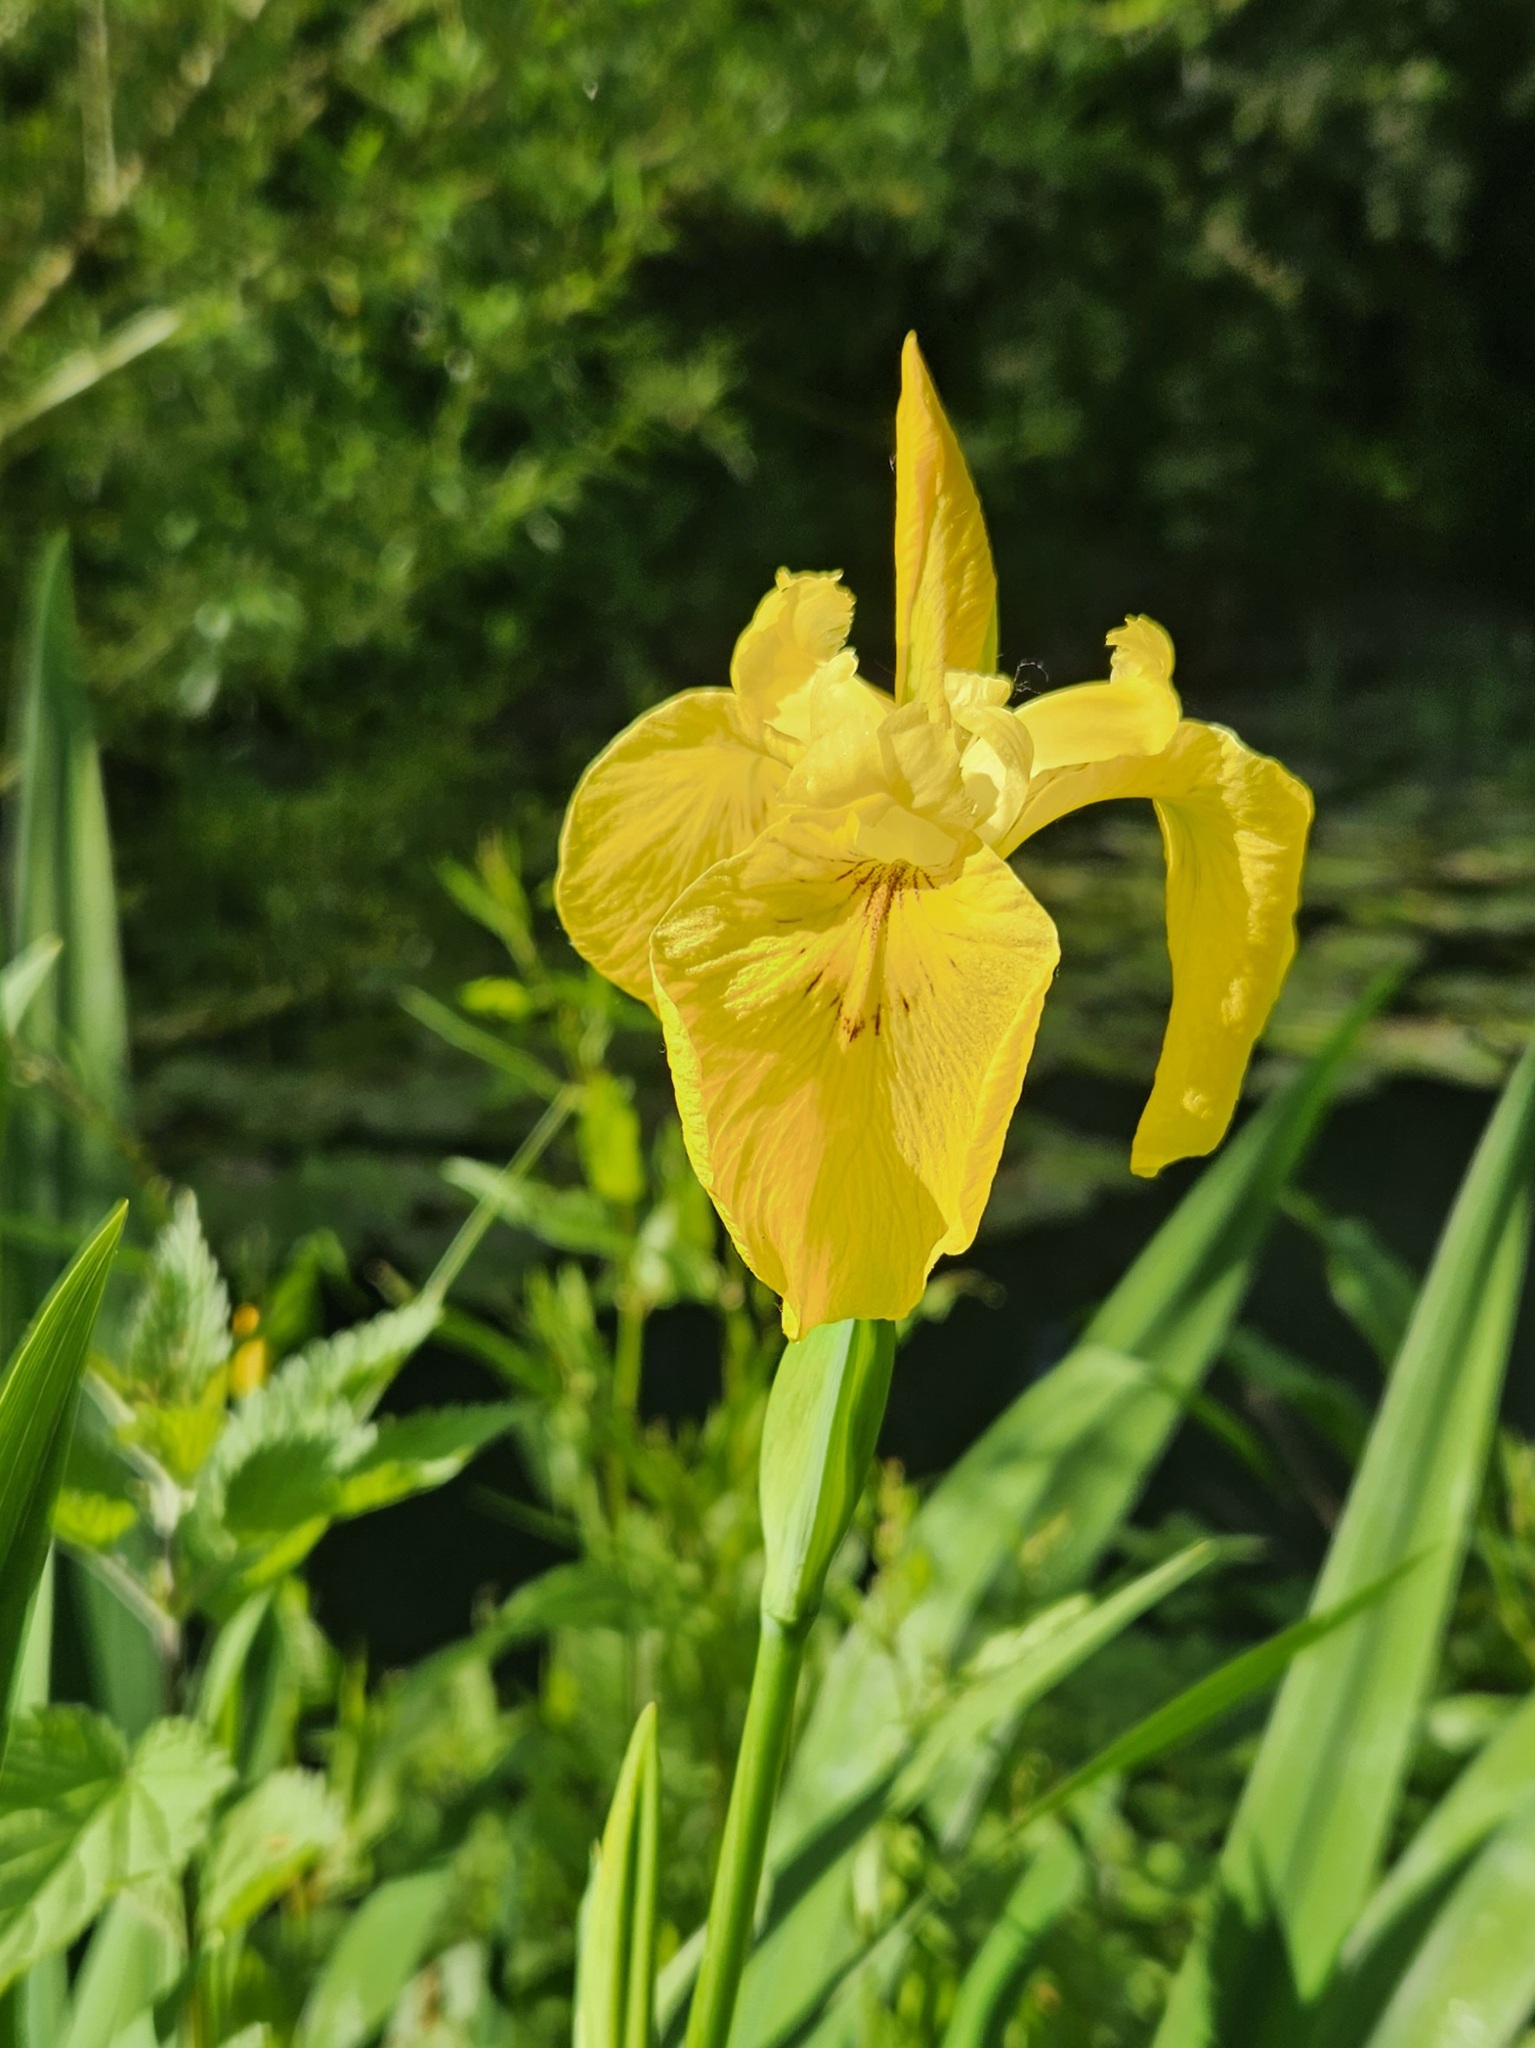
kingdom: Plantae
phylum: Tracheophyta
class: Liliopsida
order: Asparagales
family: Iridaceae
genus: Iris
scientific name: Iris pseudacorus
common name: Yellow flag
